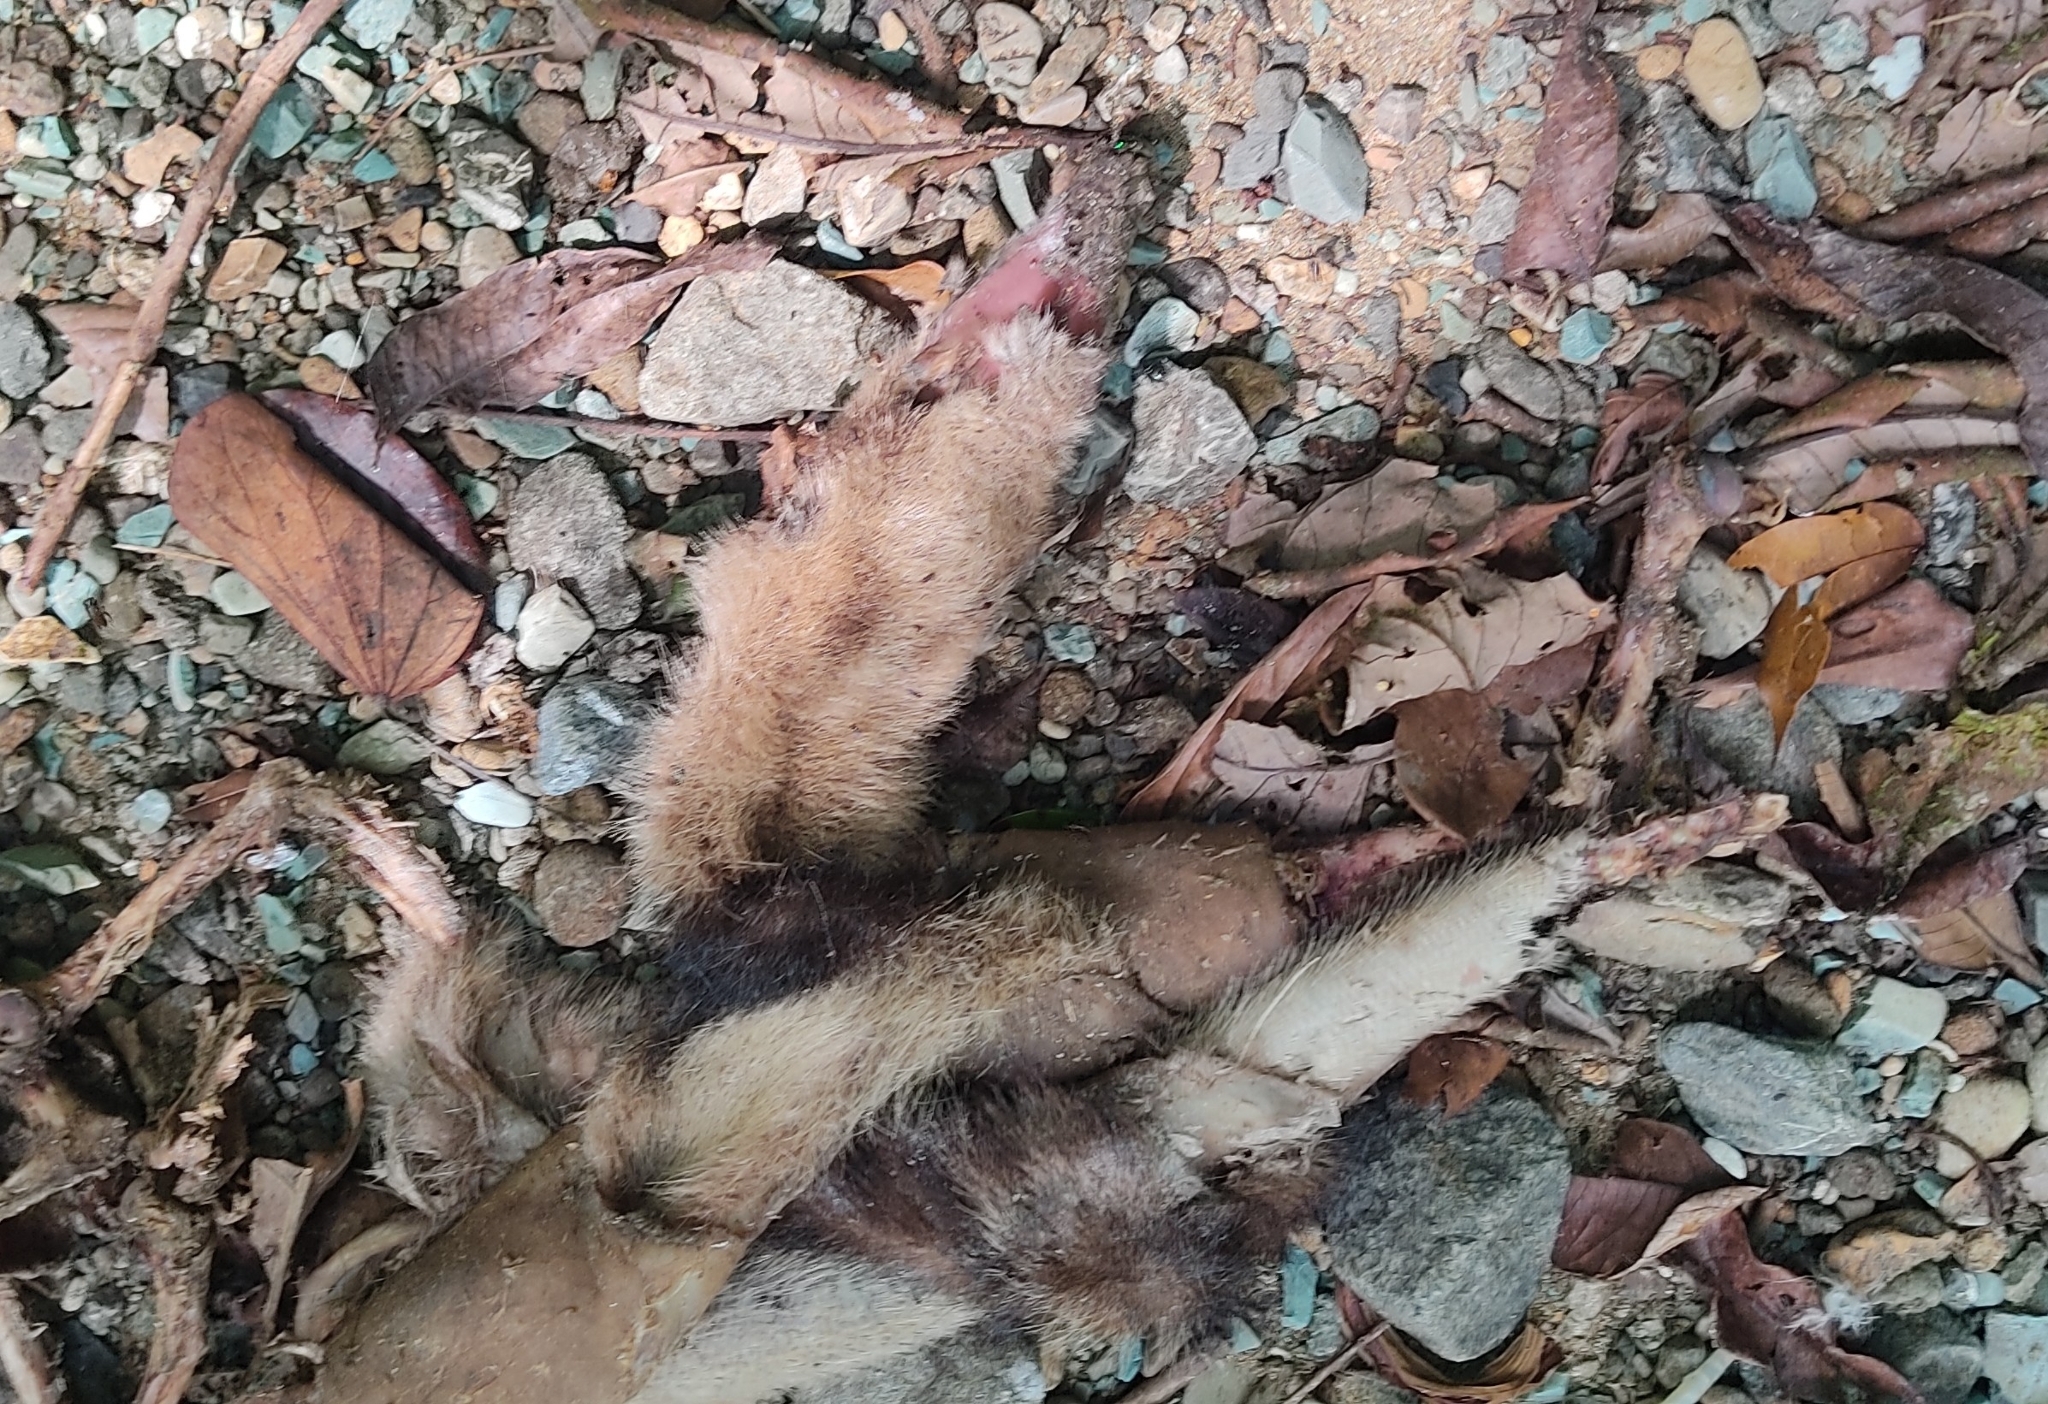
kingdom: Animalia
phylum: Chordata
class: Mammalia
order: Pilosa
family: Myrmecophagidae
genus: Tamandua
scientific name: Tamandua mexicana
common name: Northern tamandua
